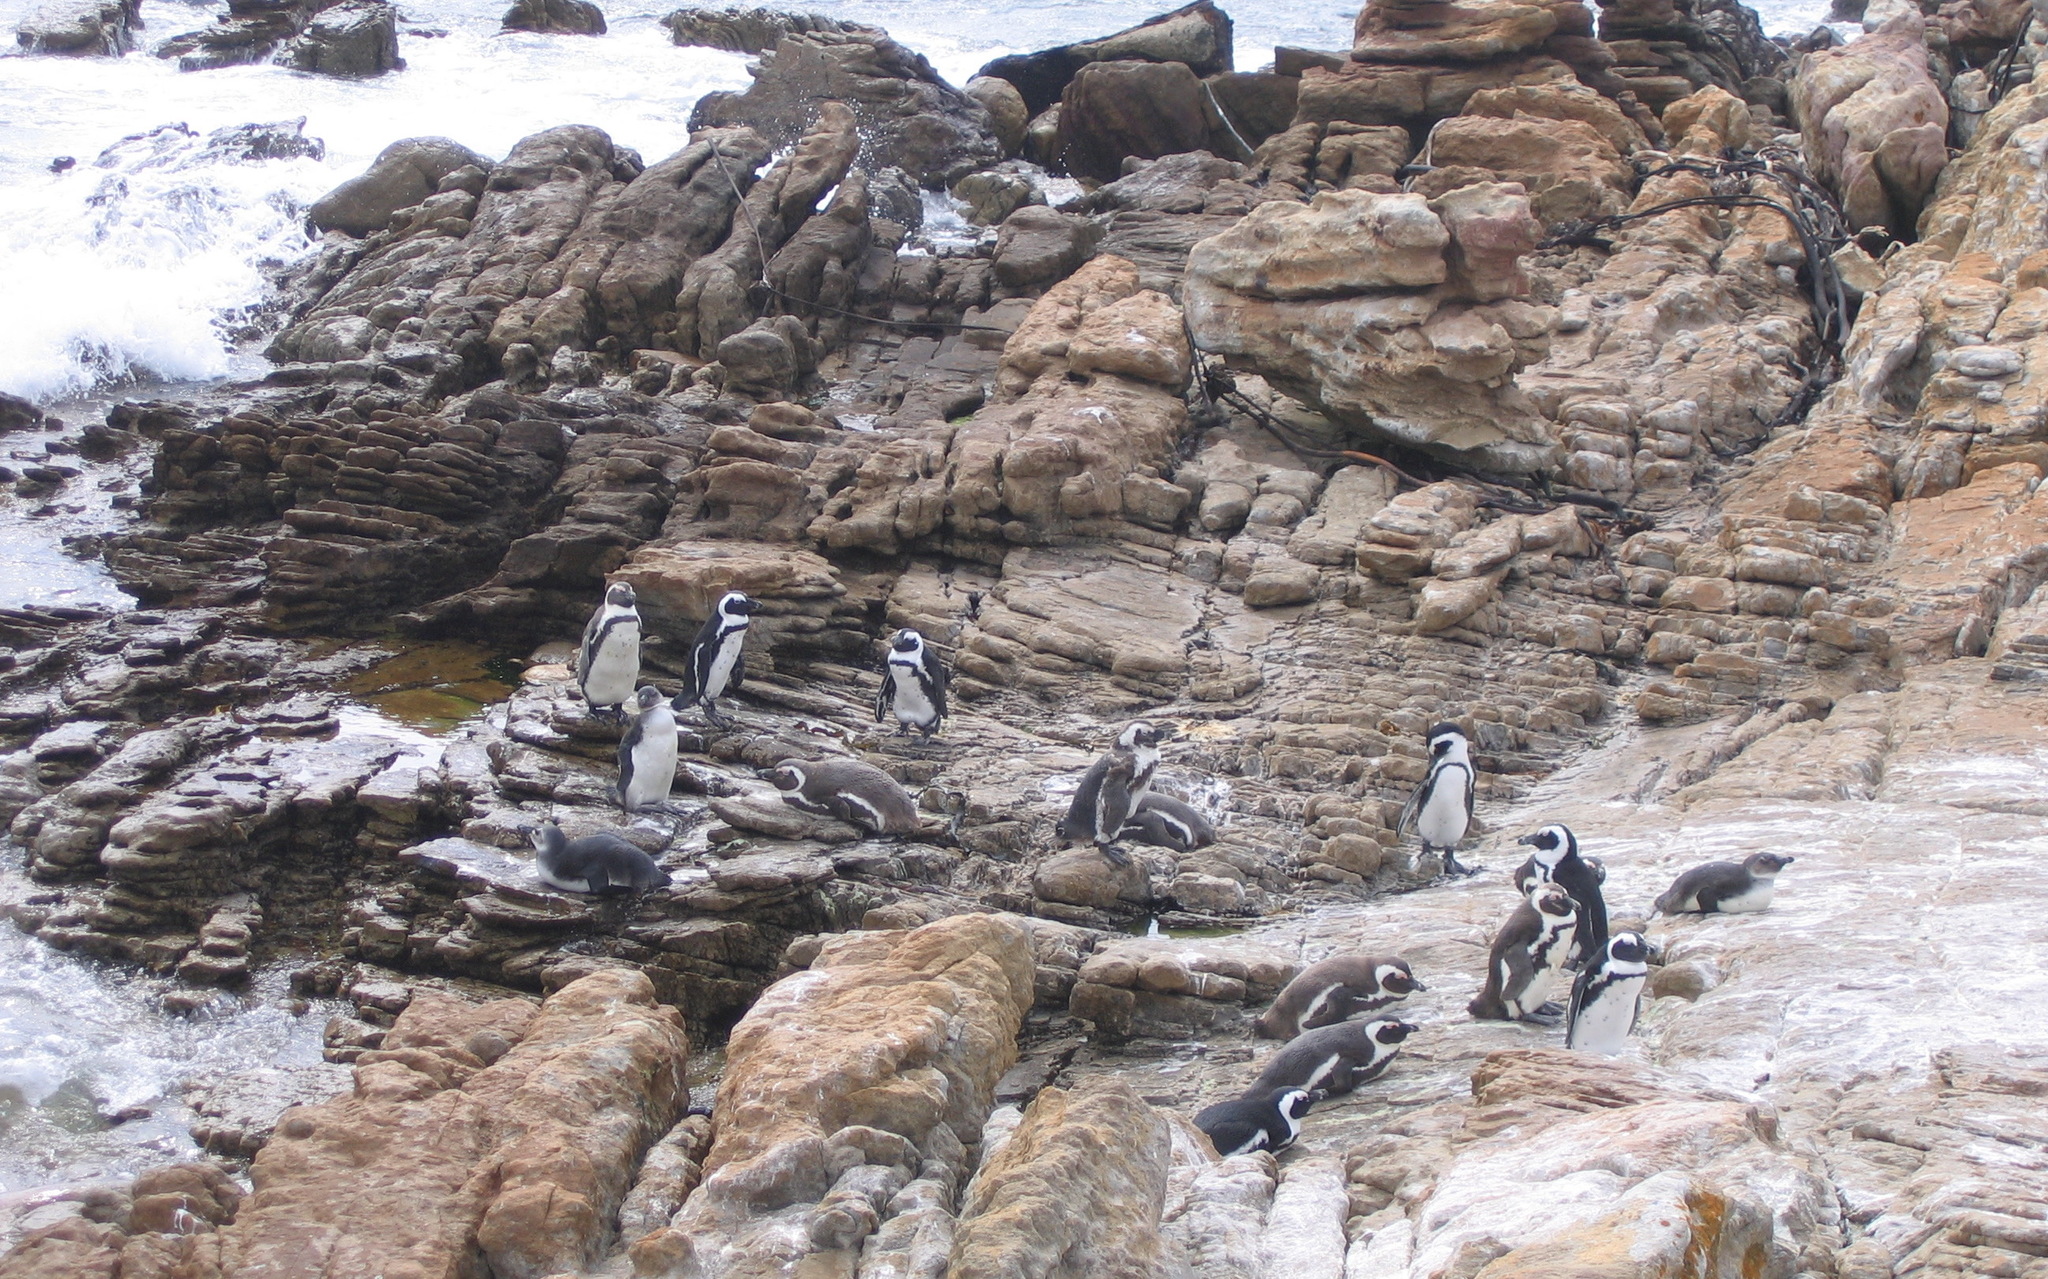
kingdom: Animalia
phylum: Chordata
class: Aves
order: Sphenisciformes
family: Spheniscidae
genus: Spheniscus
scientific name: Spheniscus demersus
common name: African penguin
